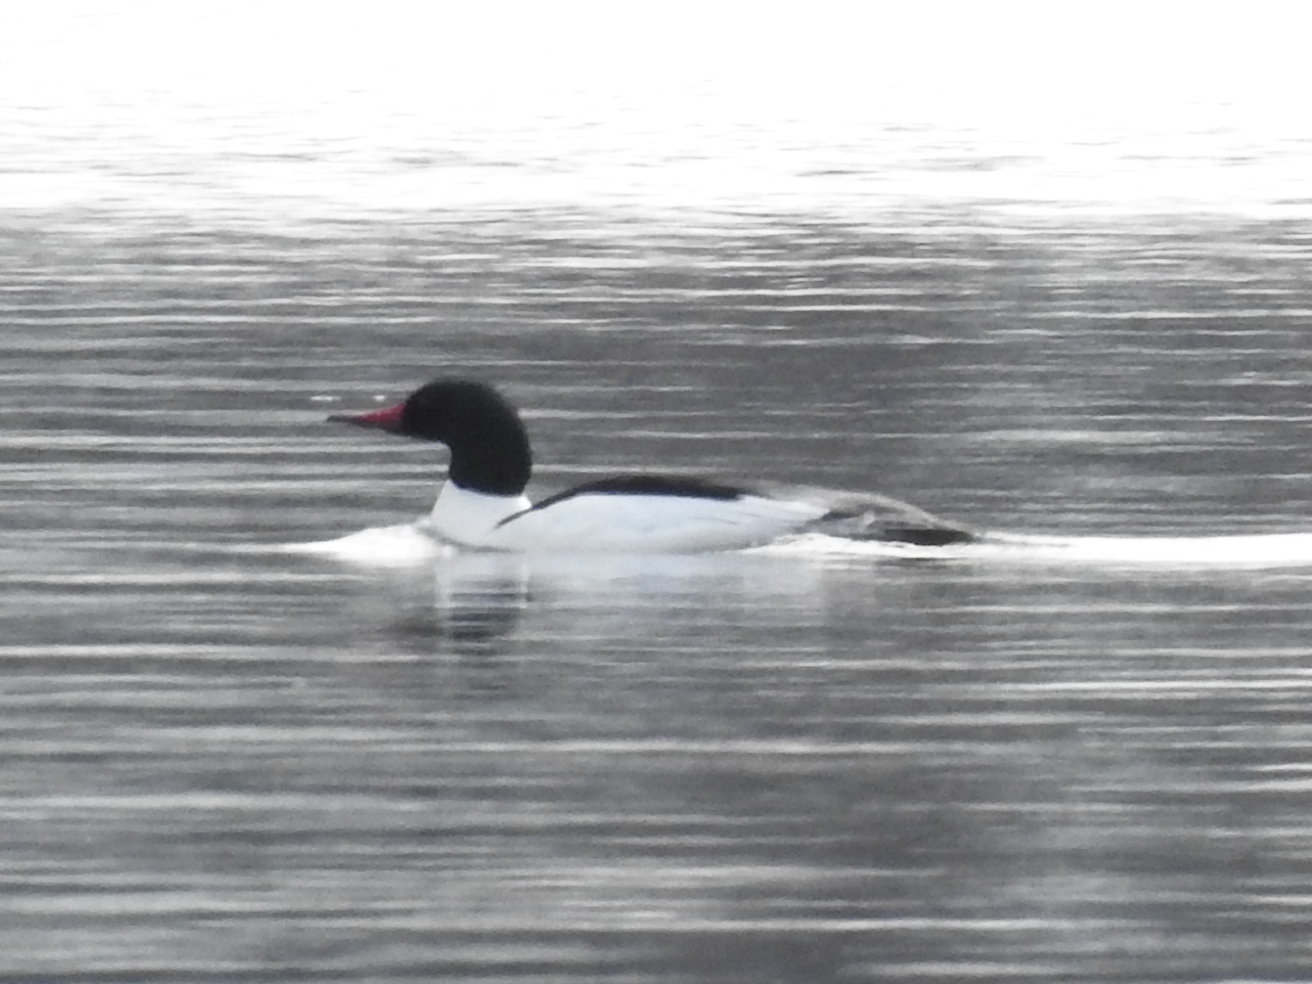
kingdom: Animalia
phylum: Chordata
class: Aves
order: Anseriformes
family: Anatidae
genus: Mergus
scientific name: Mergus merganser
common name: Common merganser
